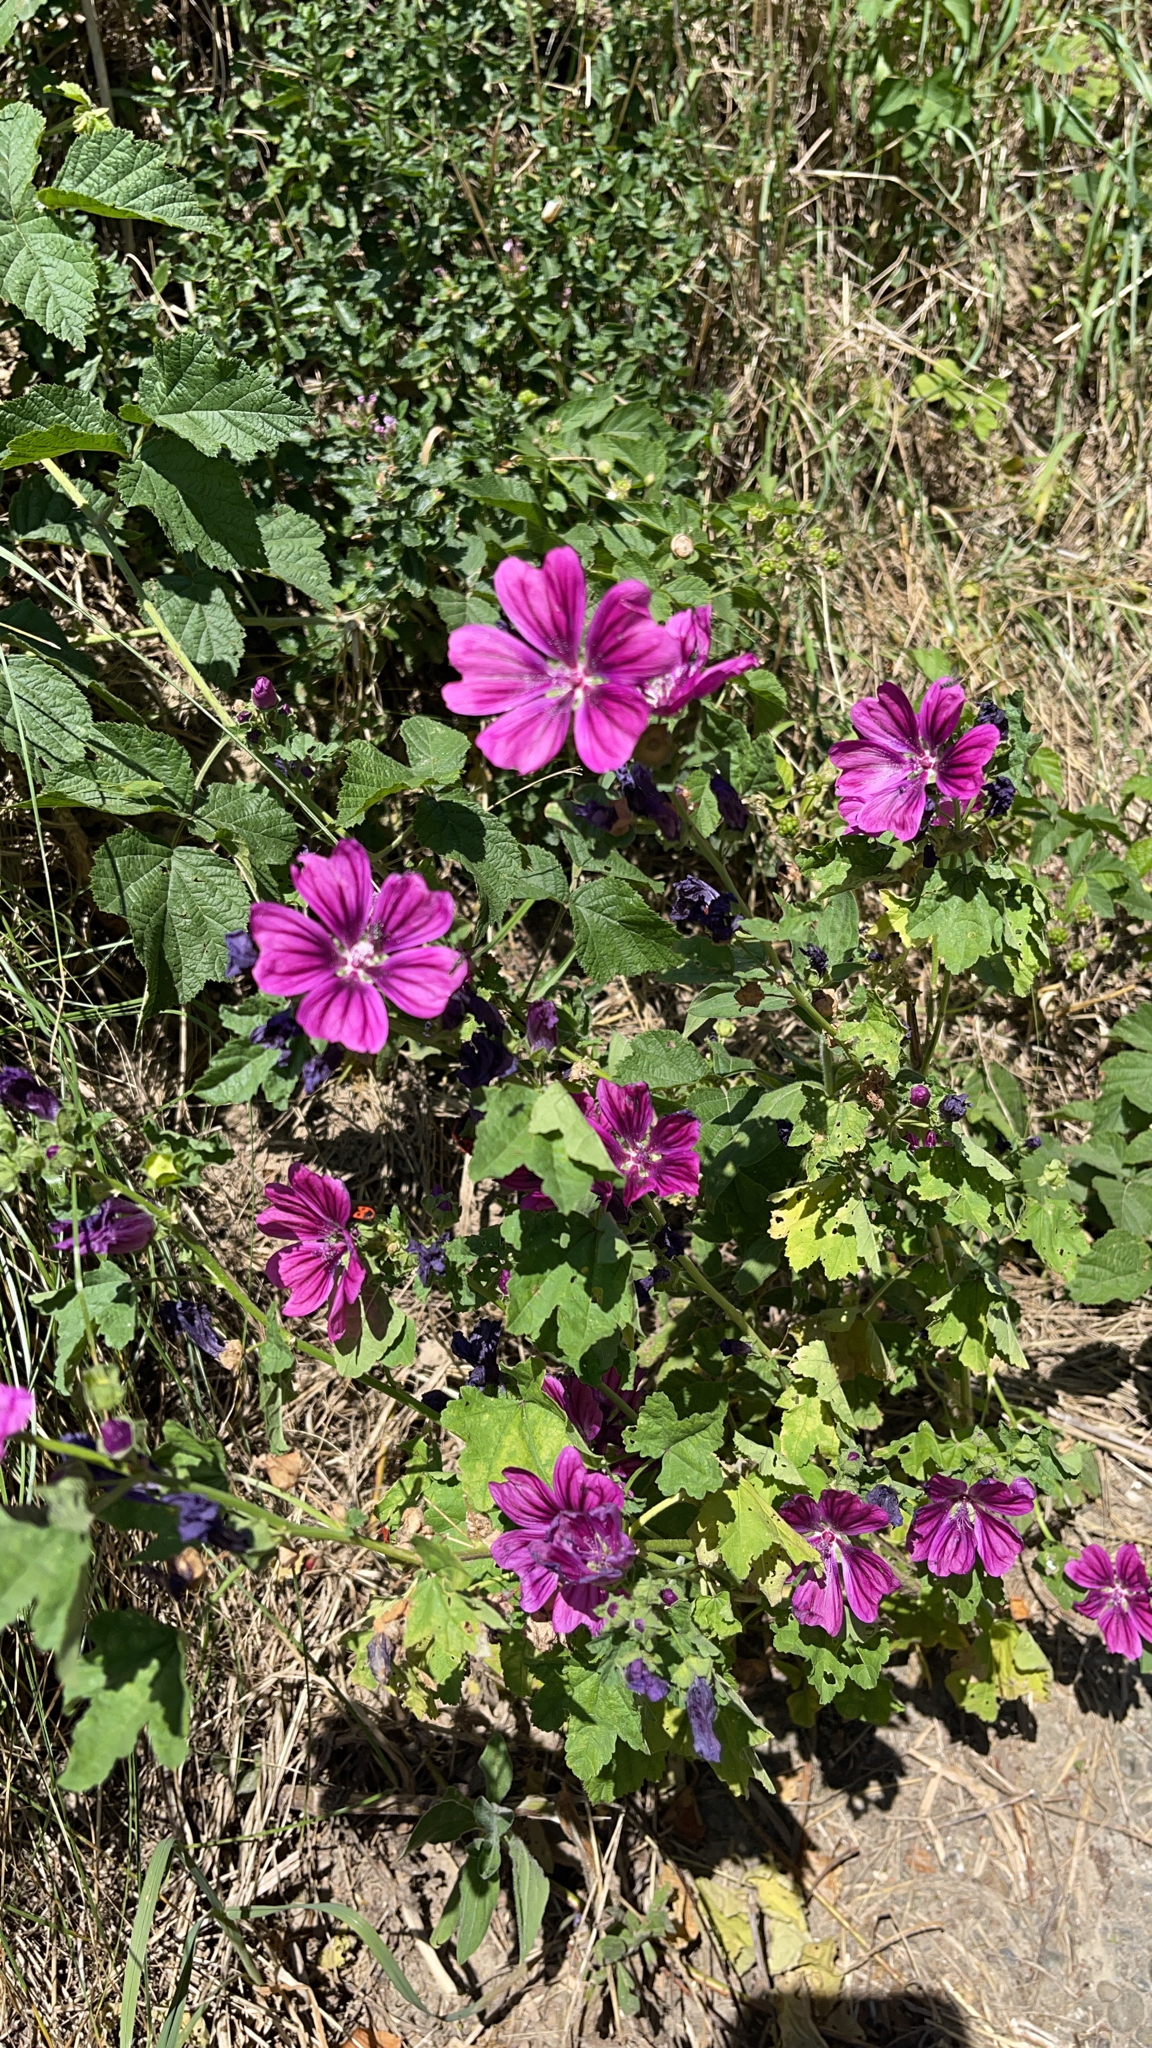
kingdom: Plantae
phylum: Tracheophyta
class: Magnoliopsida
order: Malvales
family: Malvaceae
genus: Malva
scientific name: Malva sylvestris
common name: Common mallow
